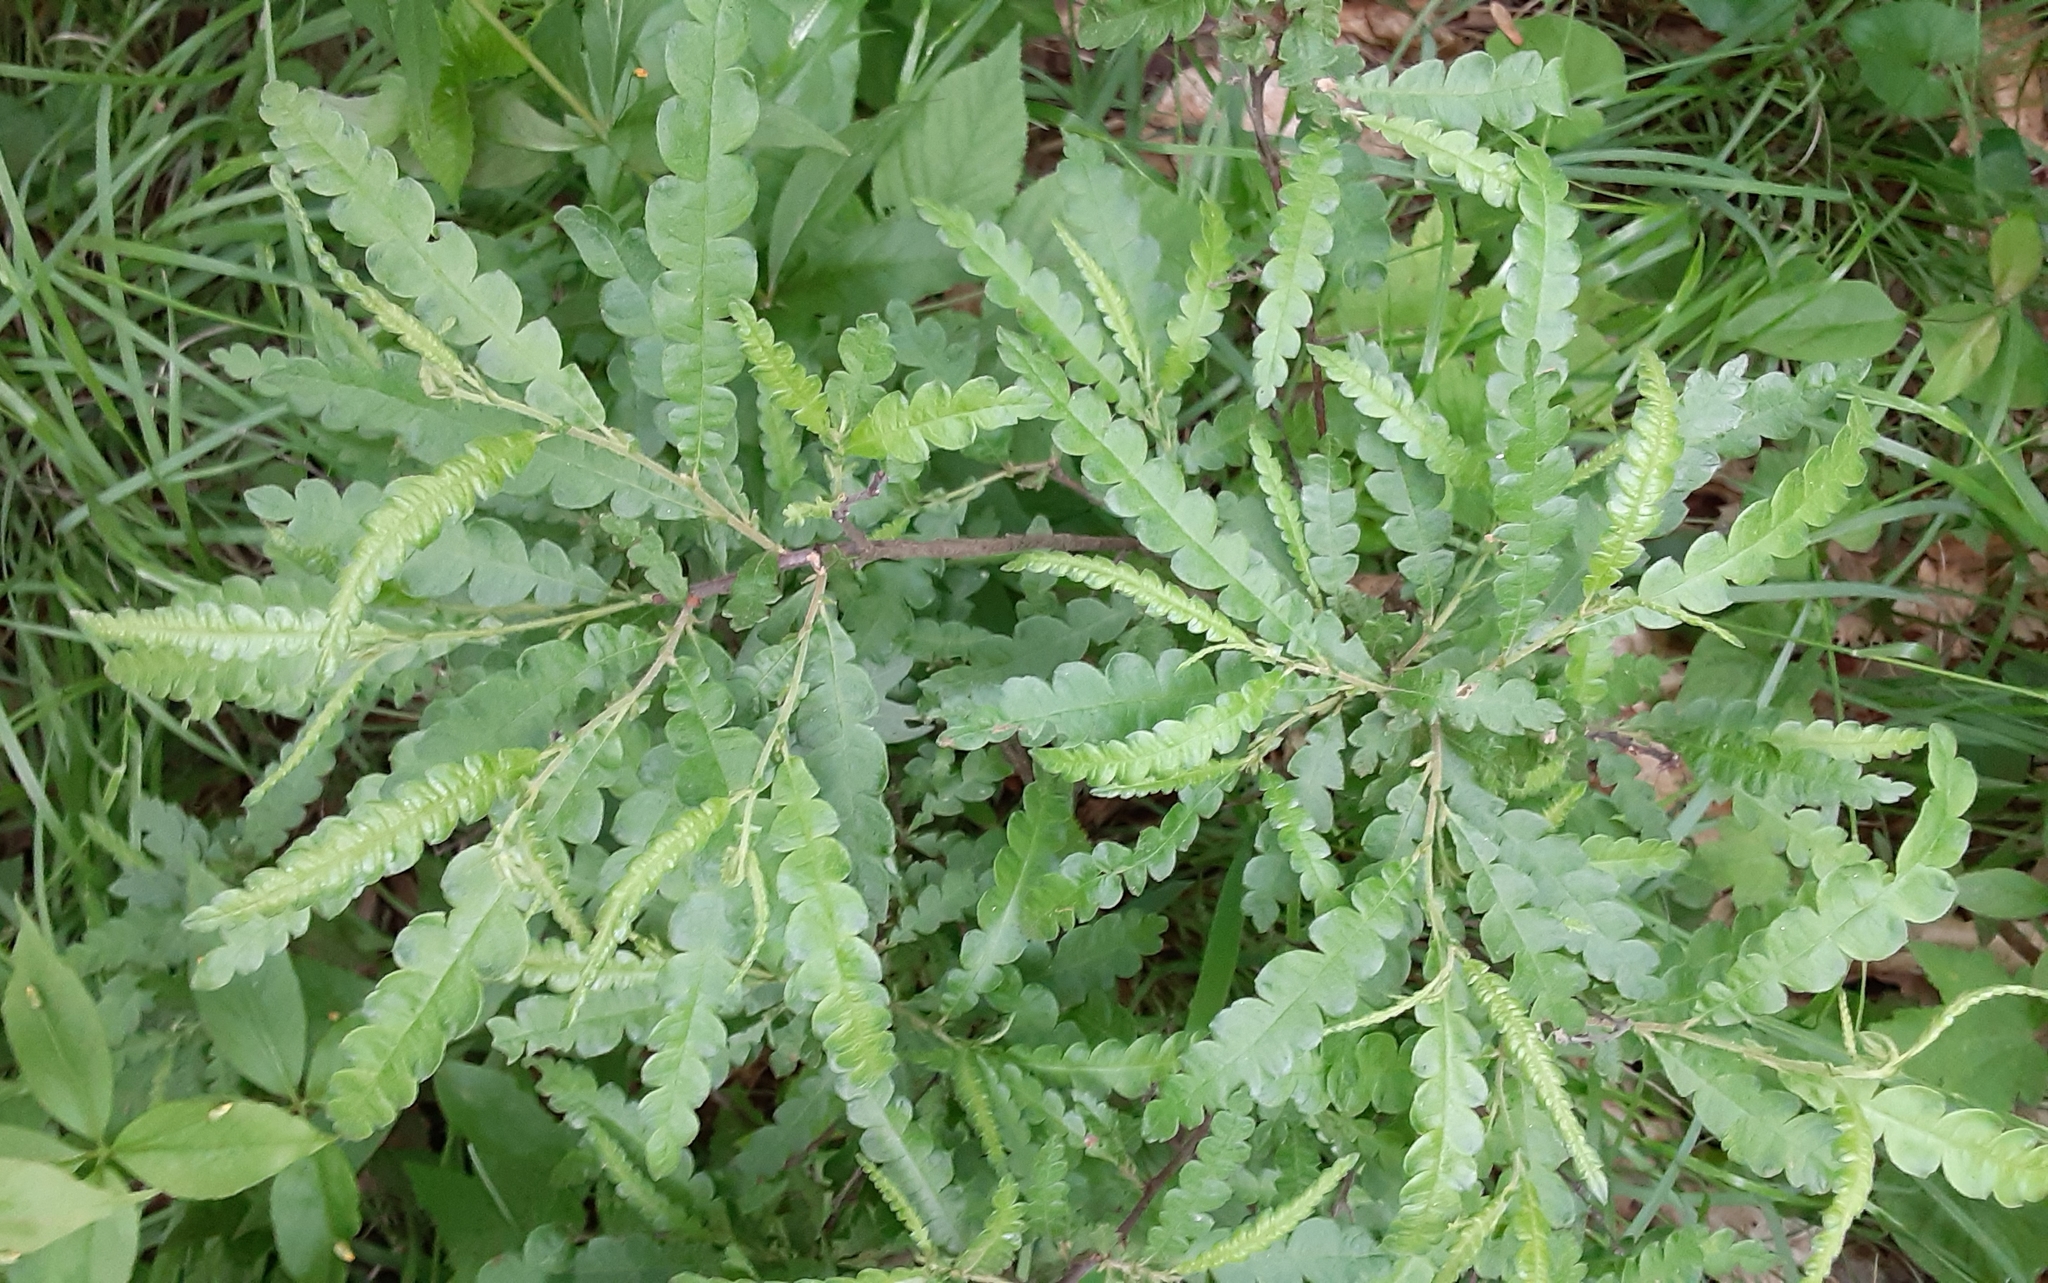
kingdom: Plantae
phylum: Tracheophyta
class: Magnoliopsida
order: Fagales
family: Myricaceae
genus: Comptonia
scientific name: Comptonia peregrina
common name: Sweet-fern
